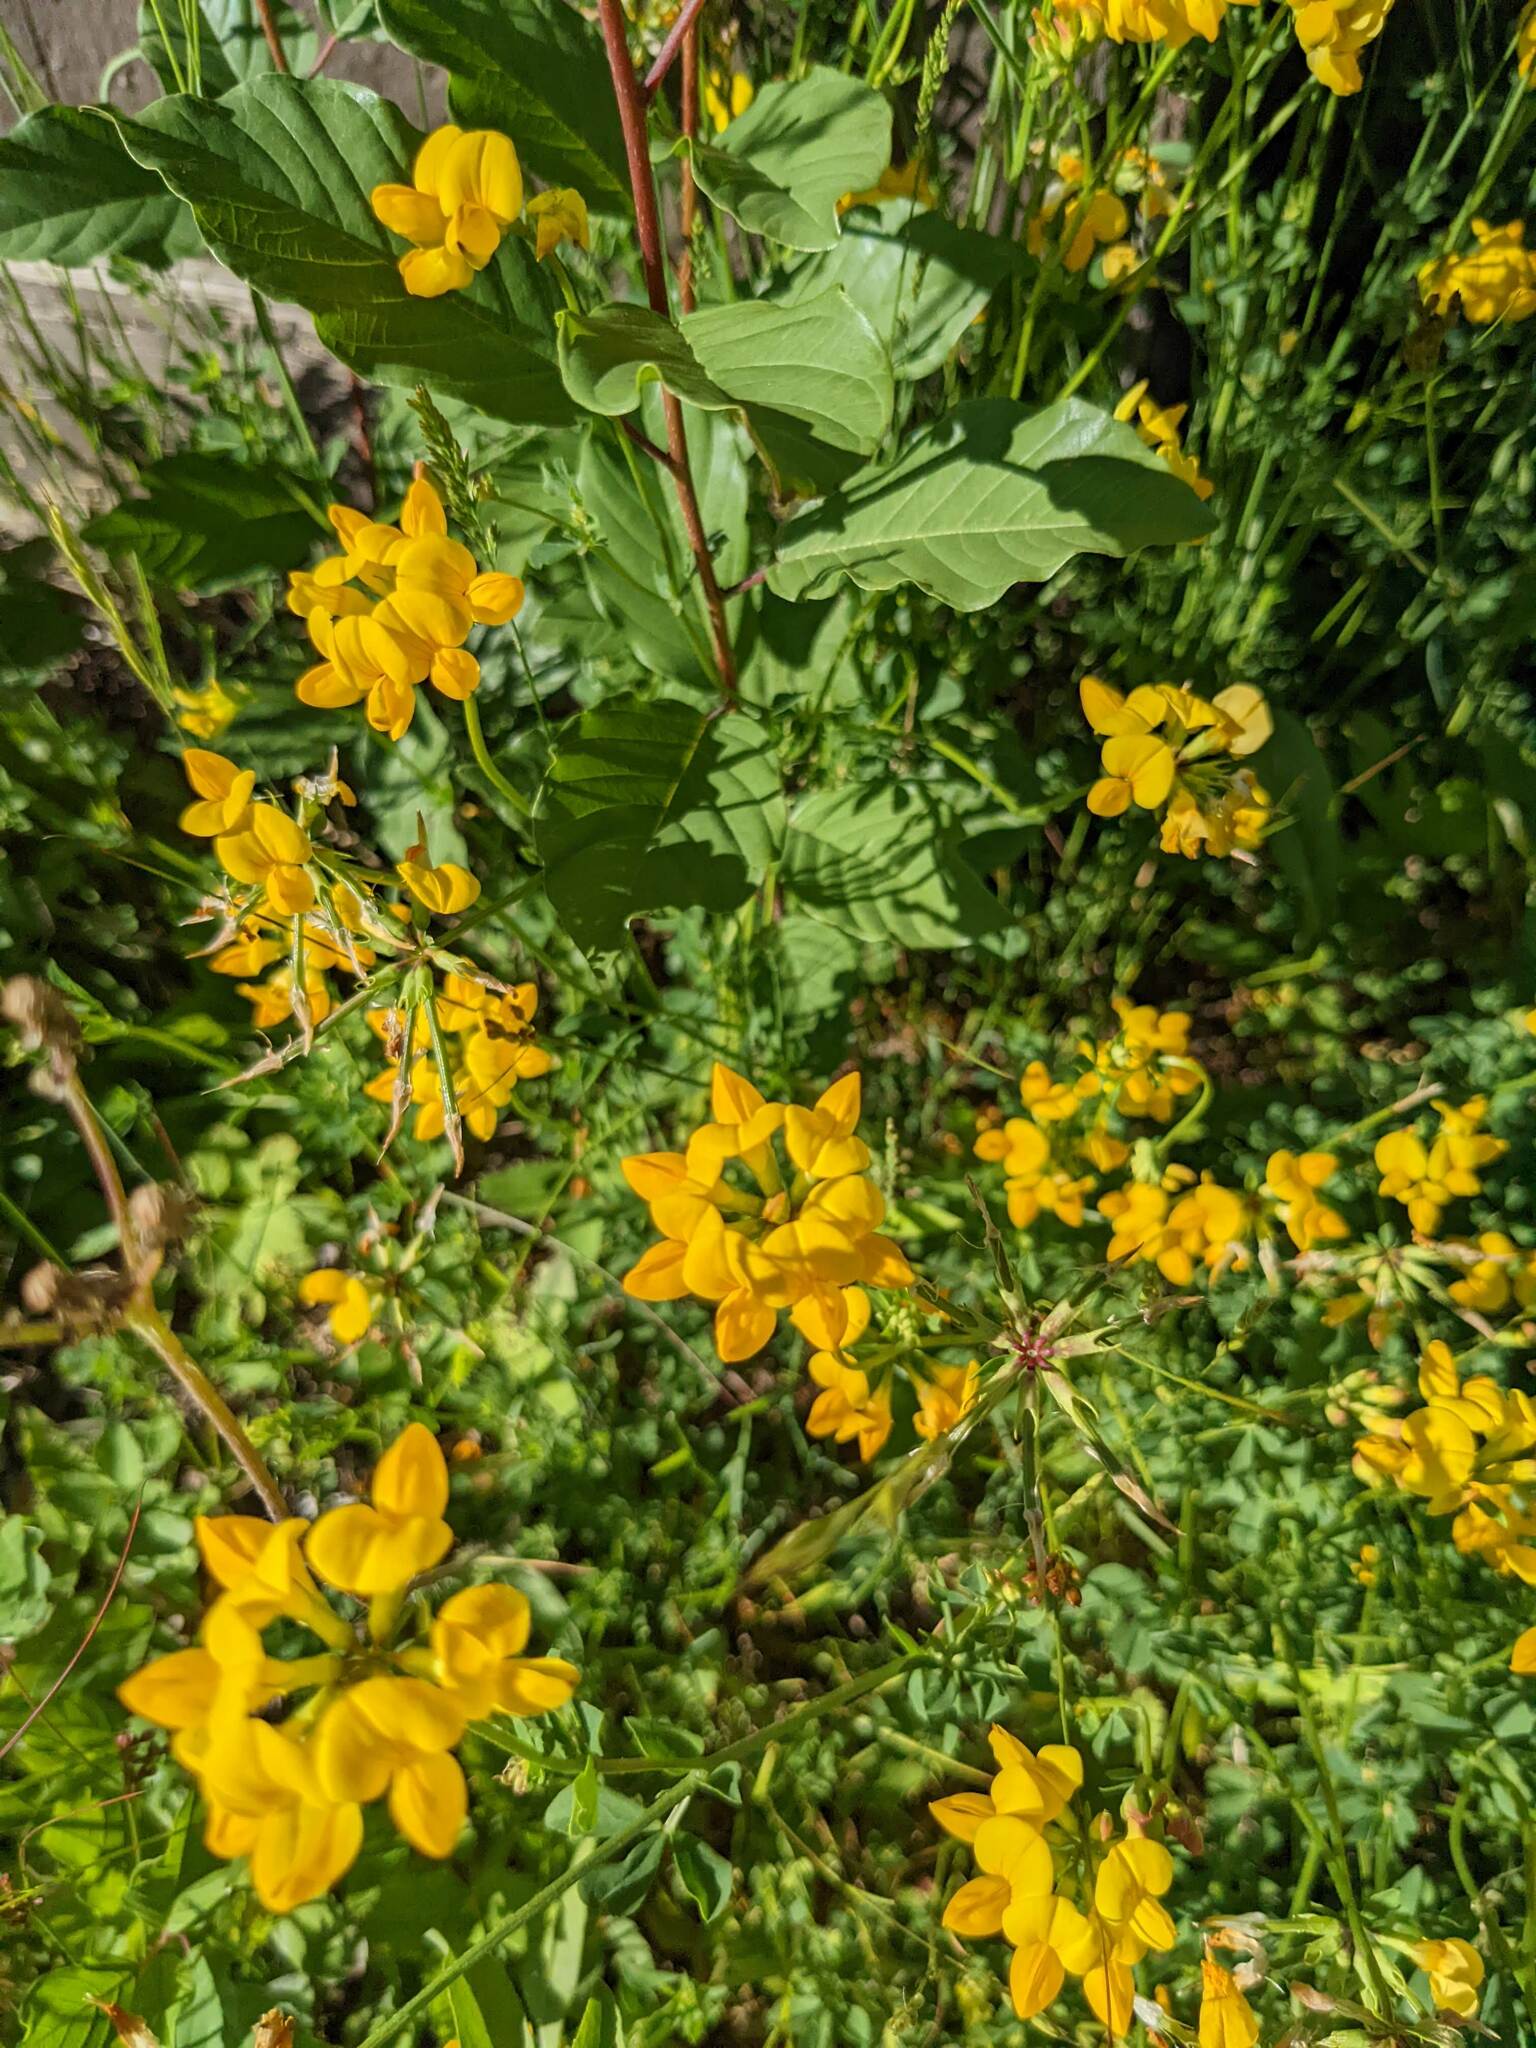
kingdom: Plantae
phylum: Tracheophyta
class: Magnoliopsida
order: Fabales
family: Fabaceae
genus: Lotus
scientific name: Lotus corniculatus
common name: Common bird's-foot-trefoil
